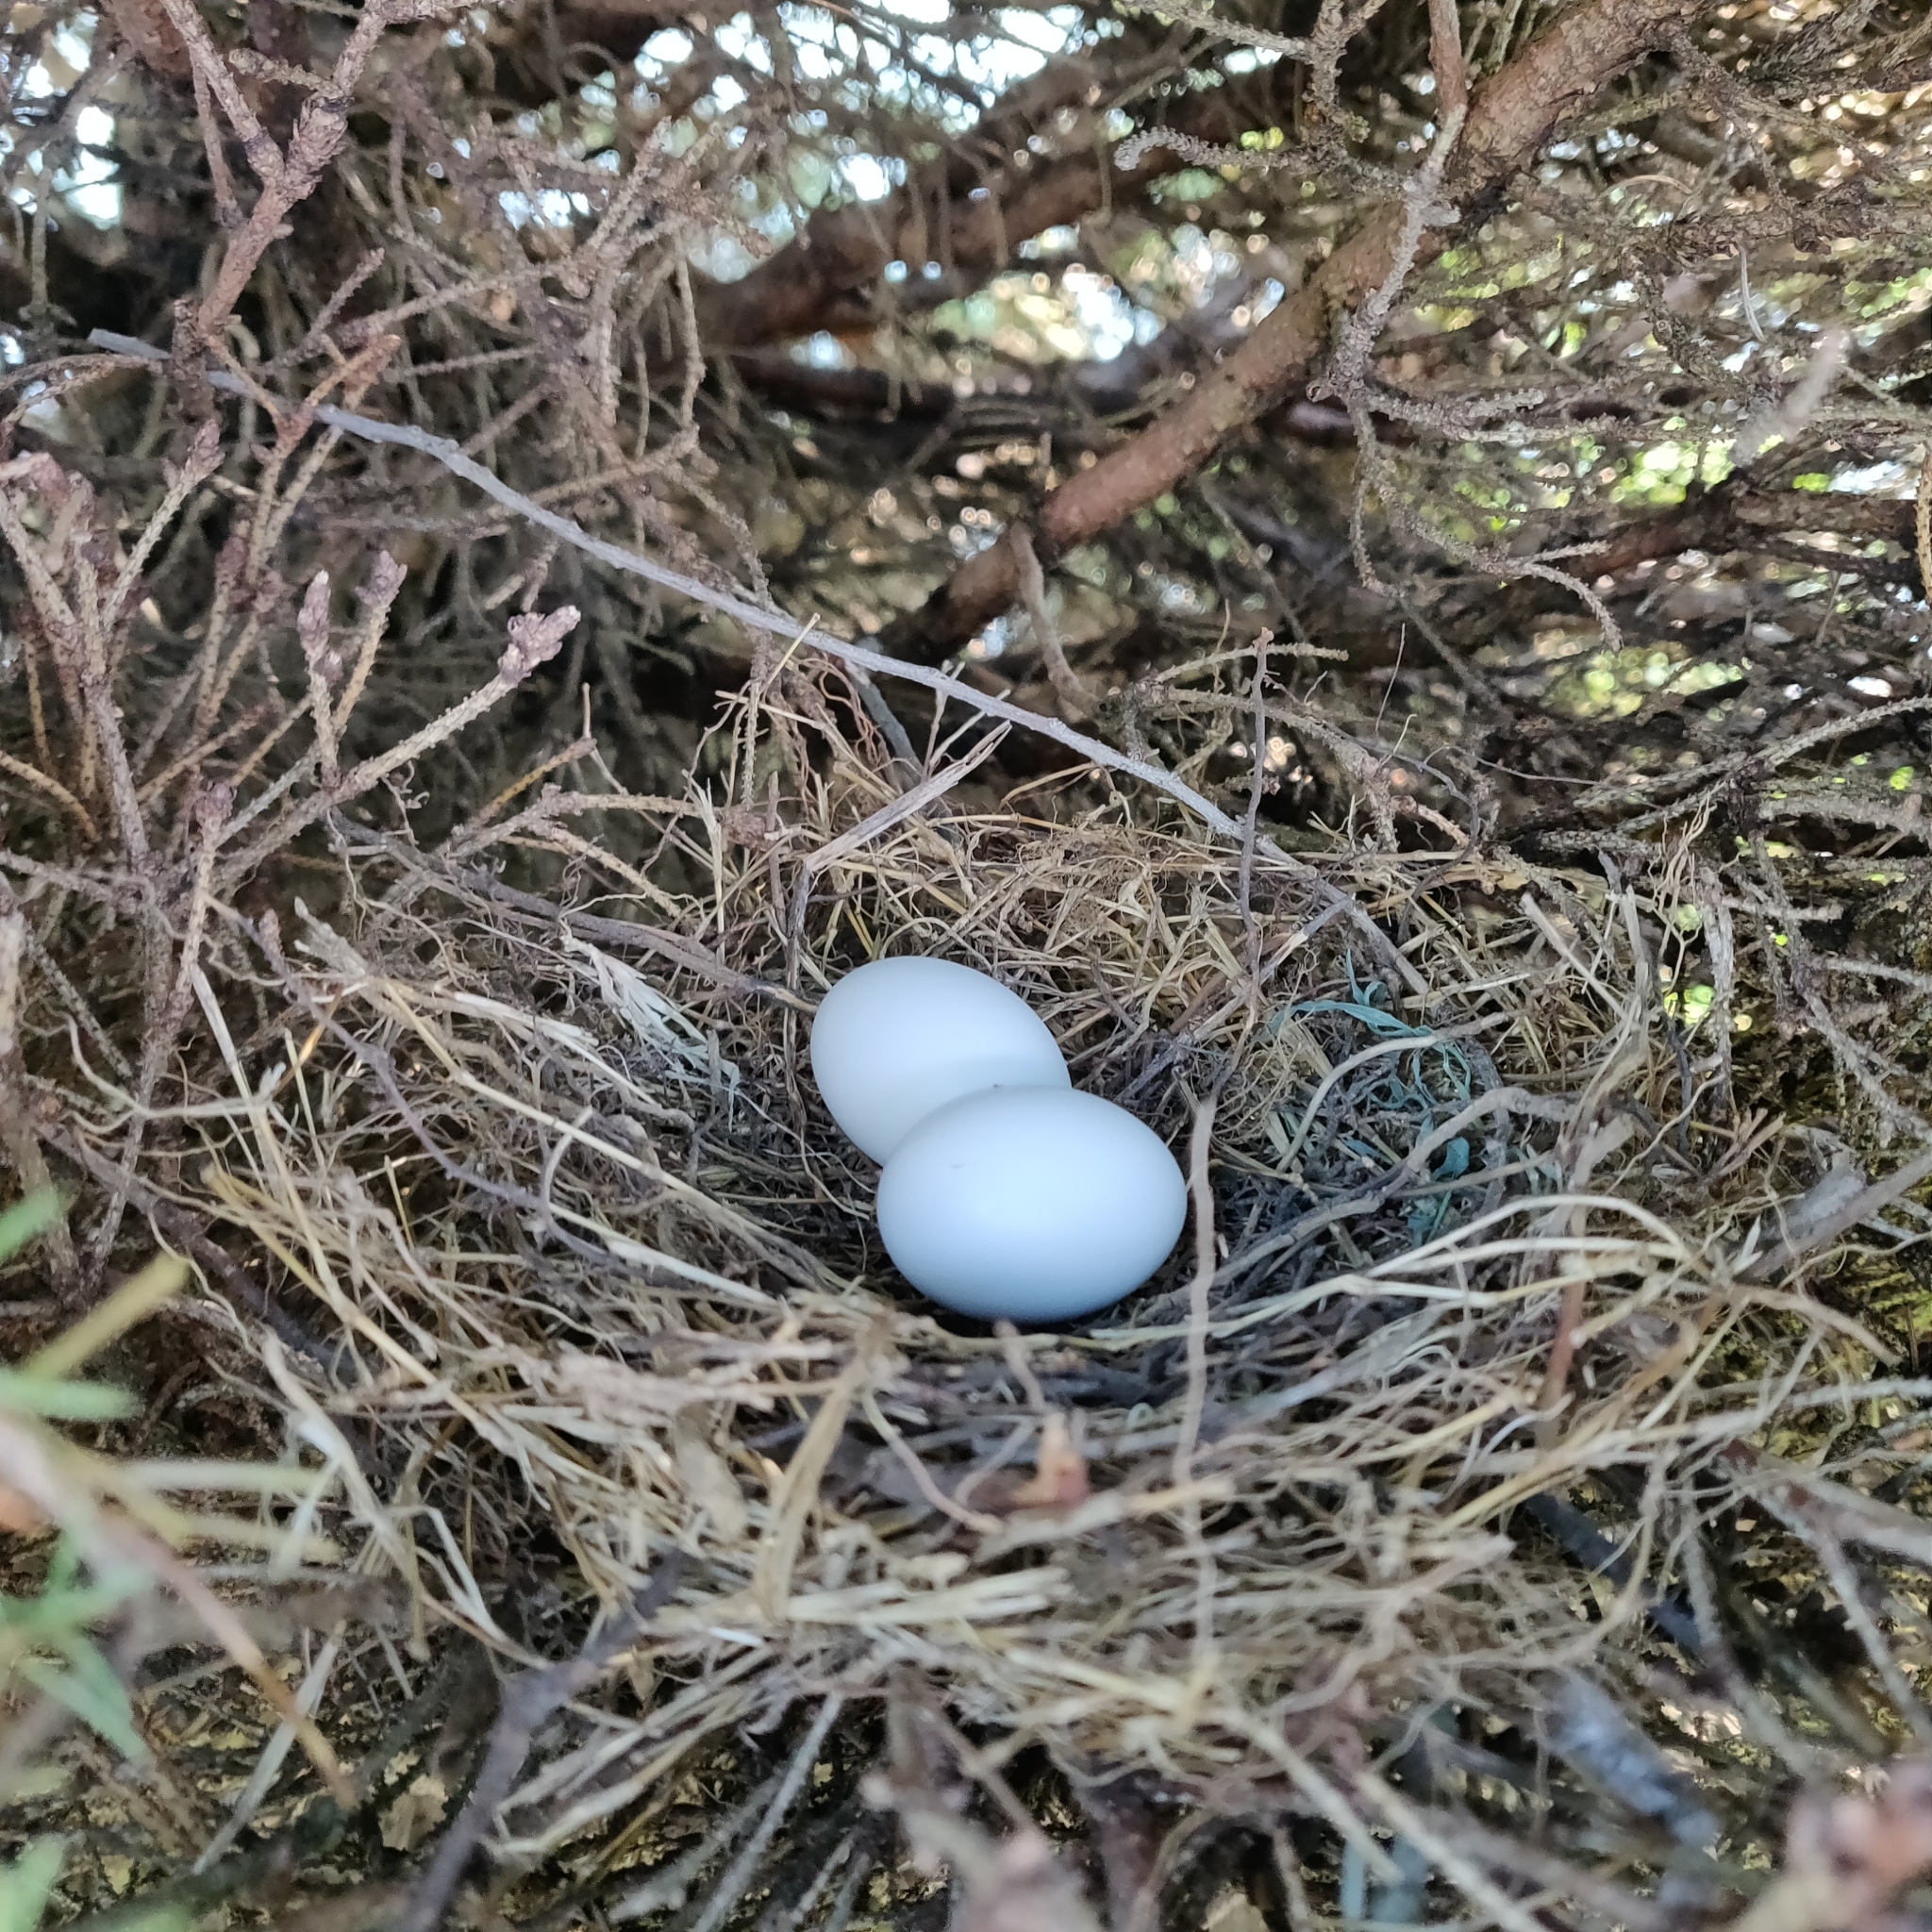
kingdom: Animalia
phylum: Chordata
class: Aves
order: Columbiformes
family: Columbidae
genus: Zenaida
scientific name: Zenaida macroura
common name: Mourning dove
